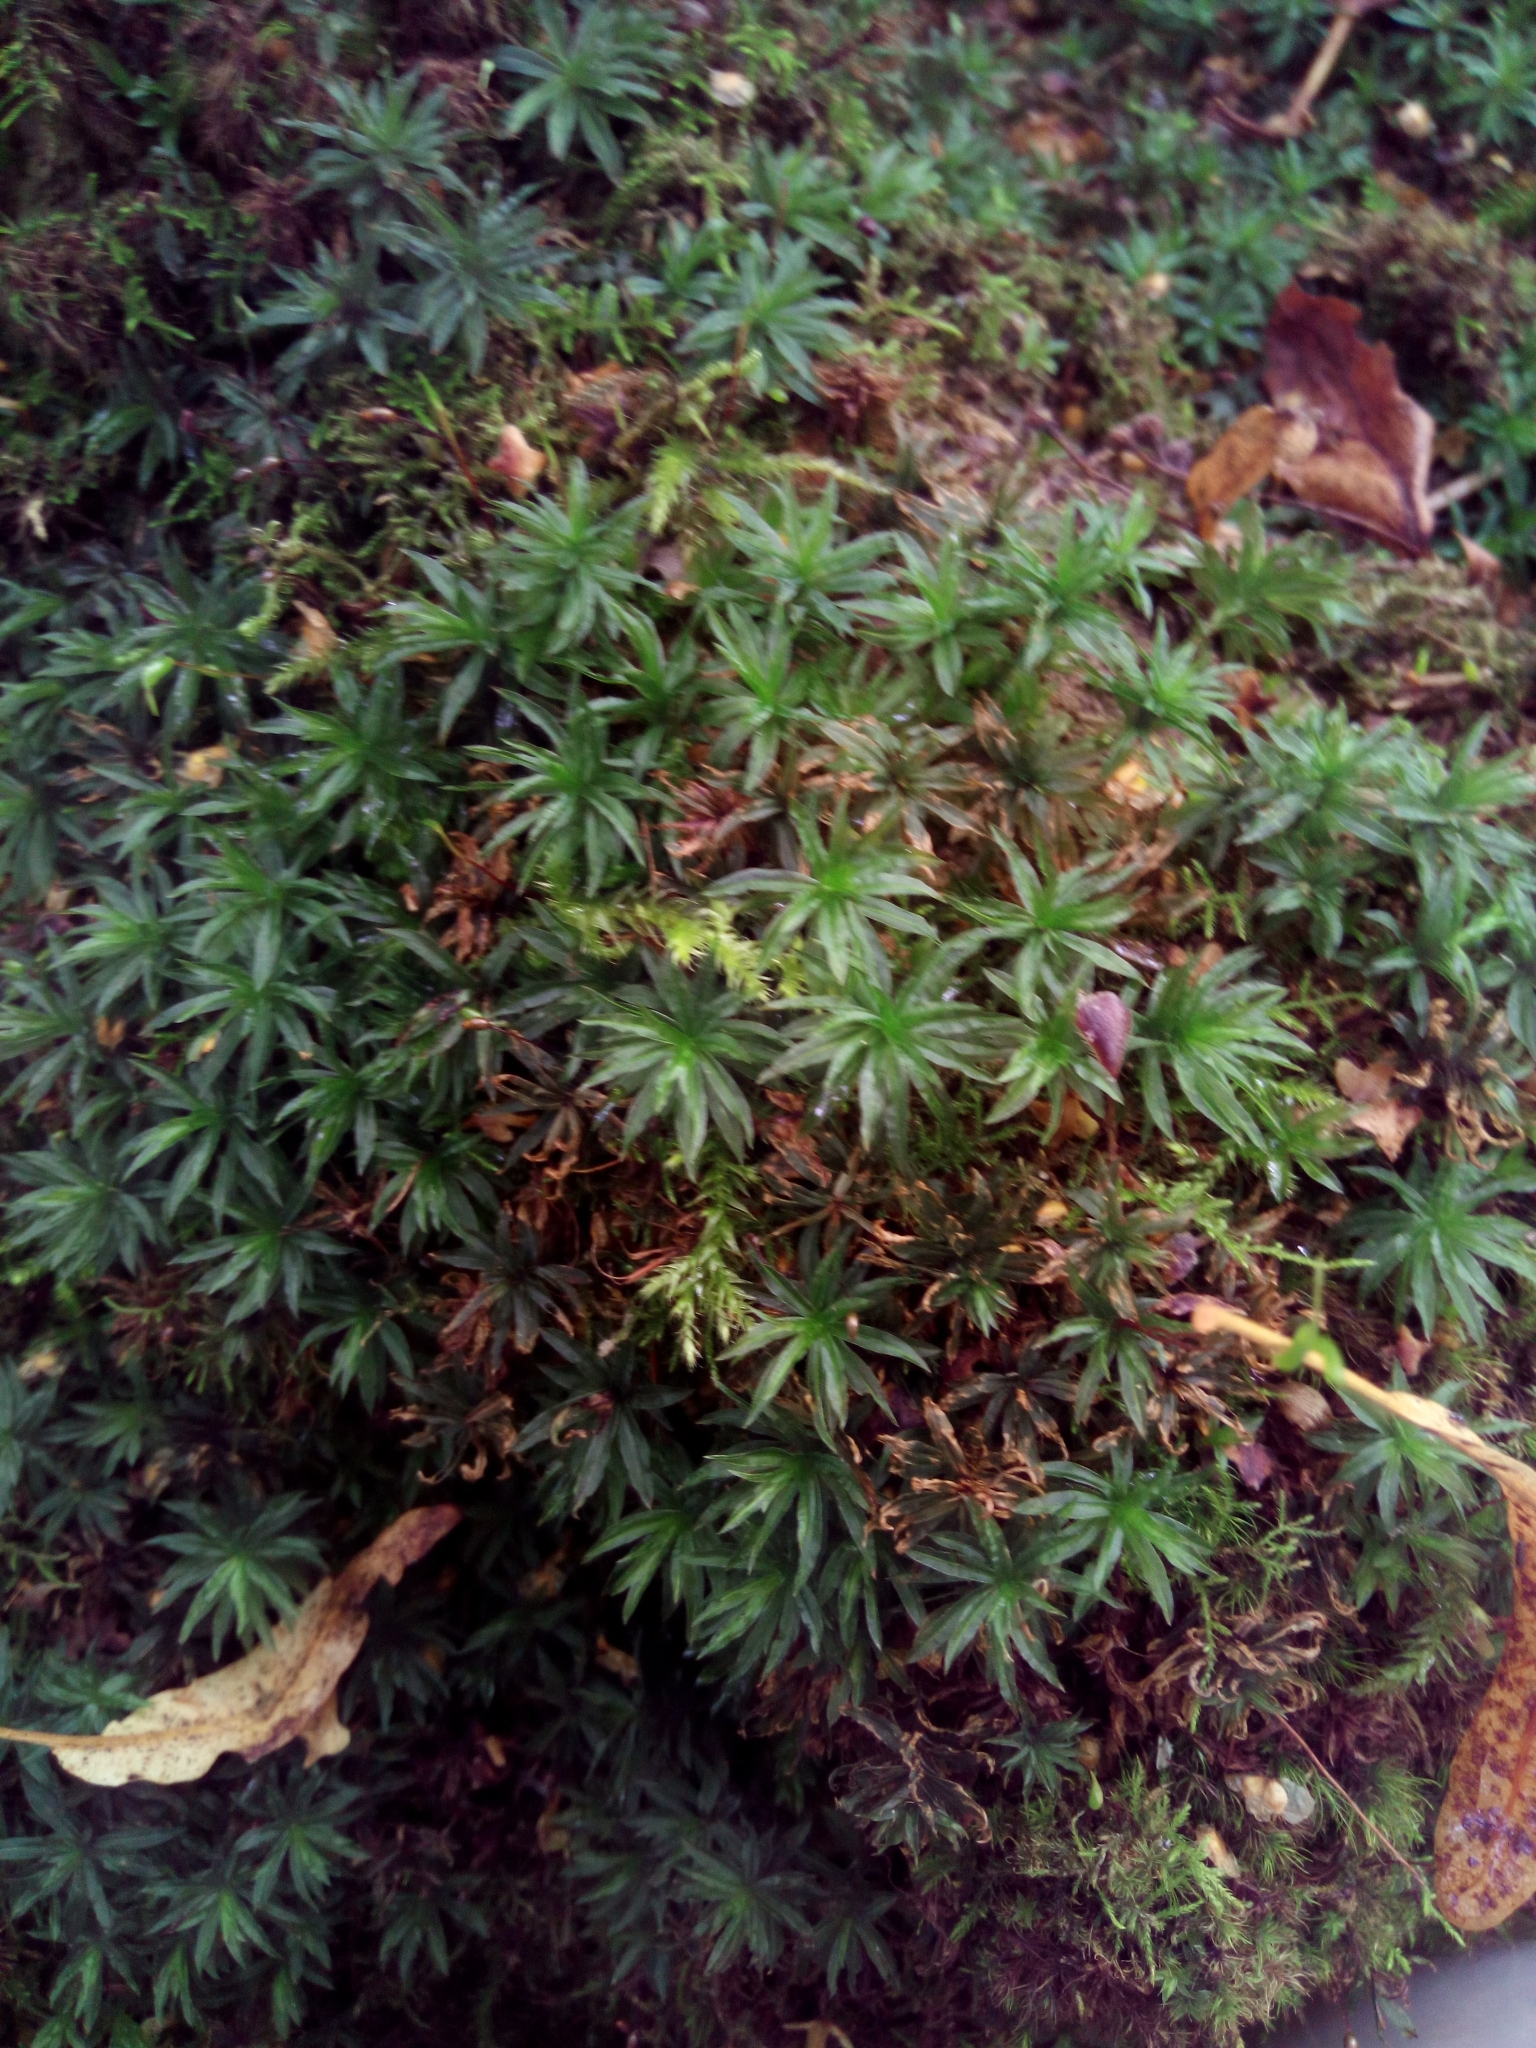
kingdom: Plantae
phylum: Bryophyta
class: Polytrichopsida
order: Polytrichales
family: Polytrichaceae
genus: Atrichum
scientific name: Atrichum undulatum
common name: Common smoothcap
